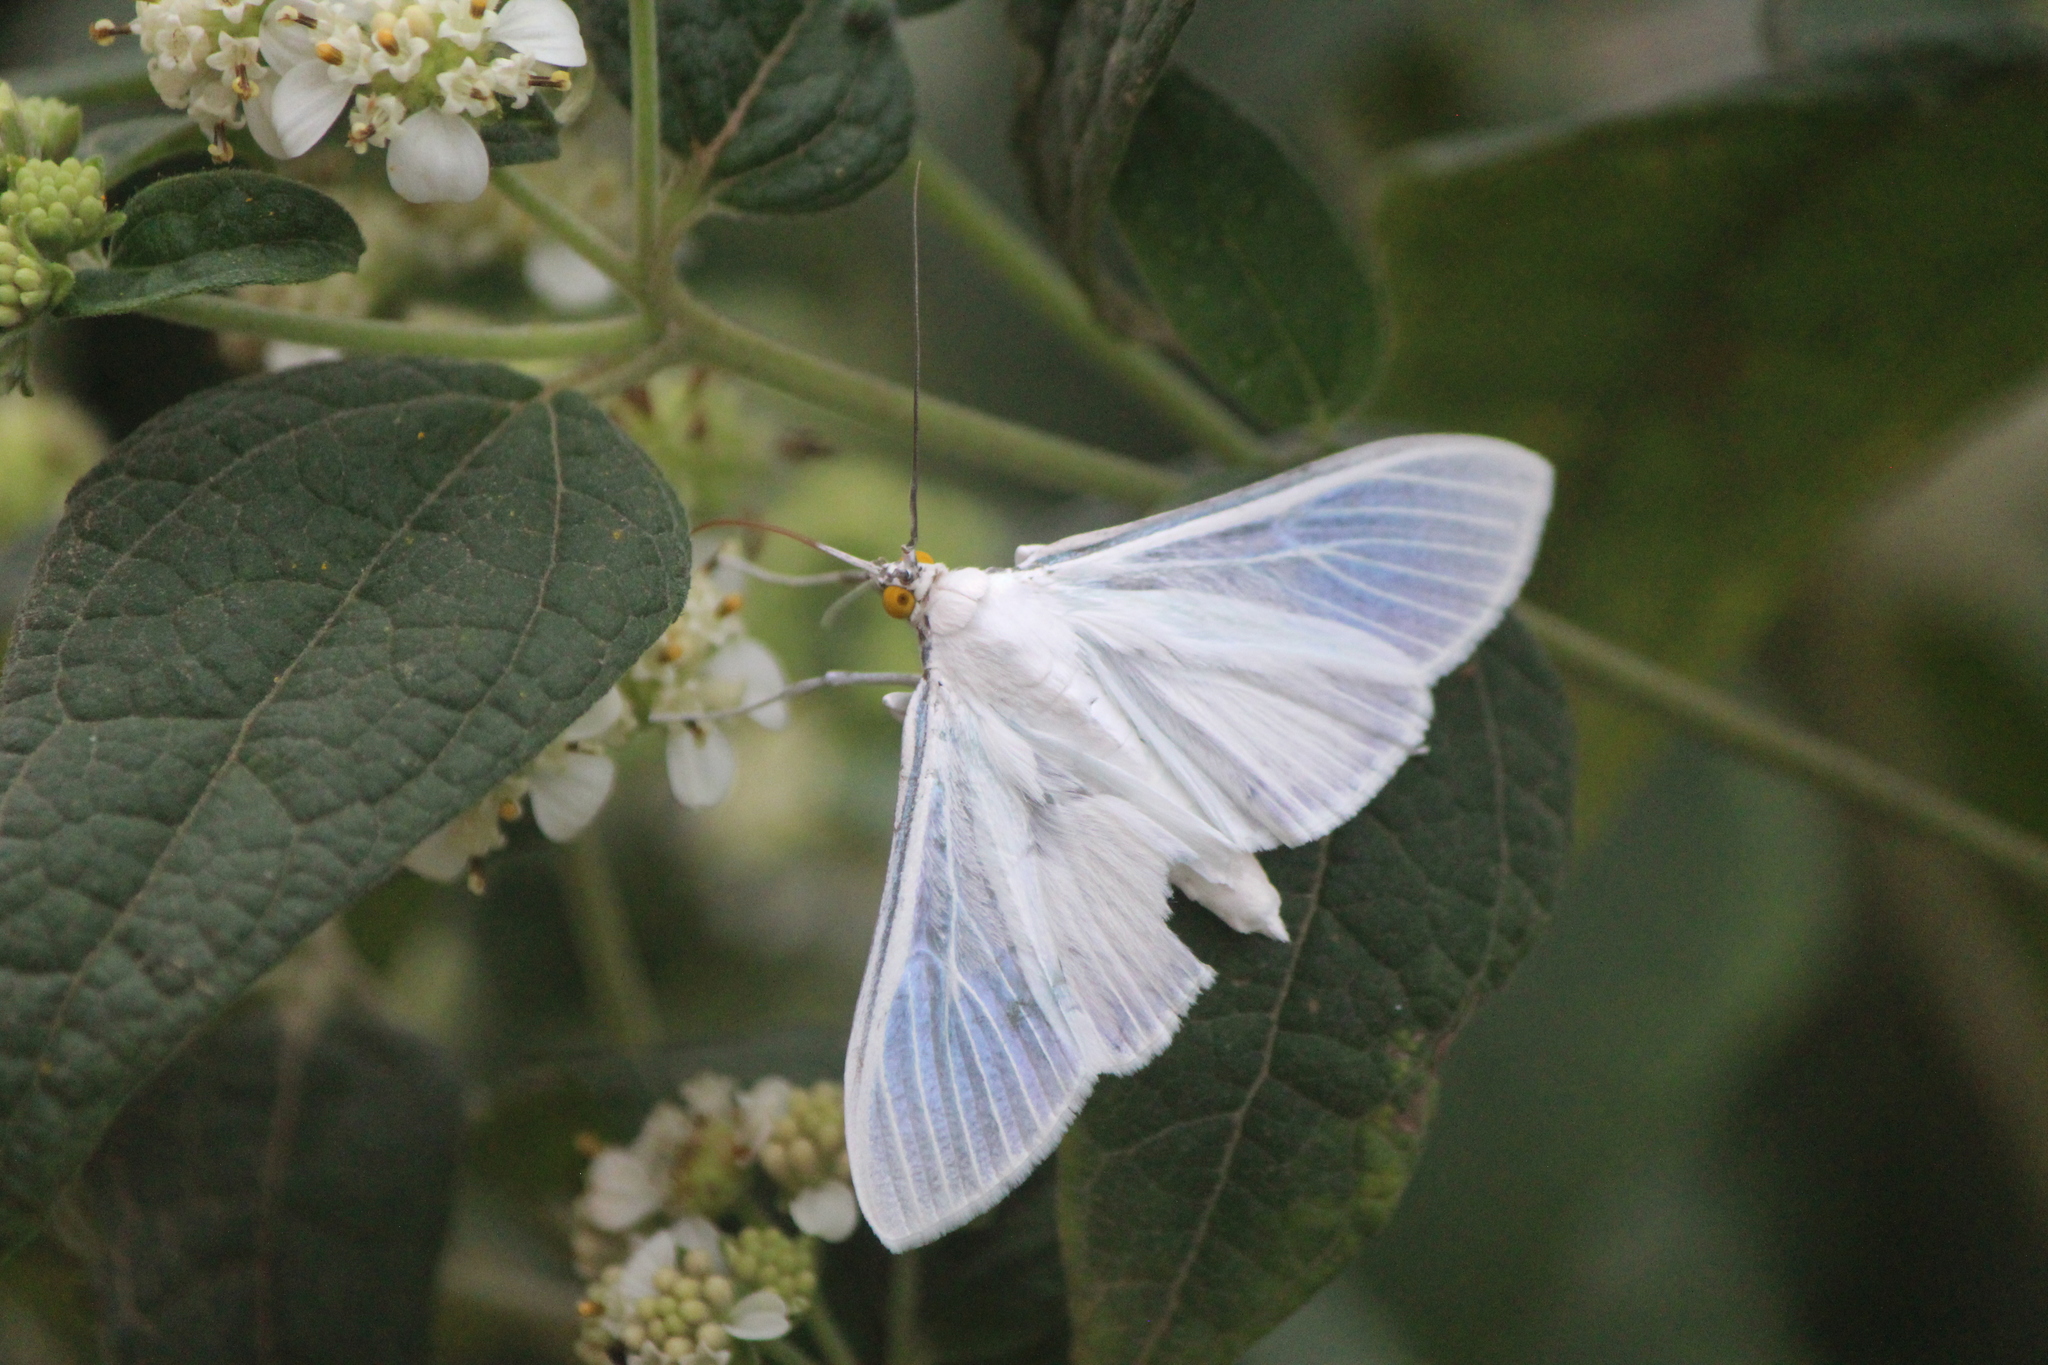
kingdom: Animalia
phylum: Arthropoda
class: Insecta
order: Lepidoptera
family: Crambidae
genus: Palpita
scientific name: Palpita flegia
